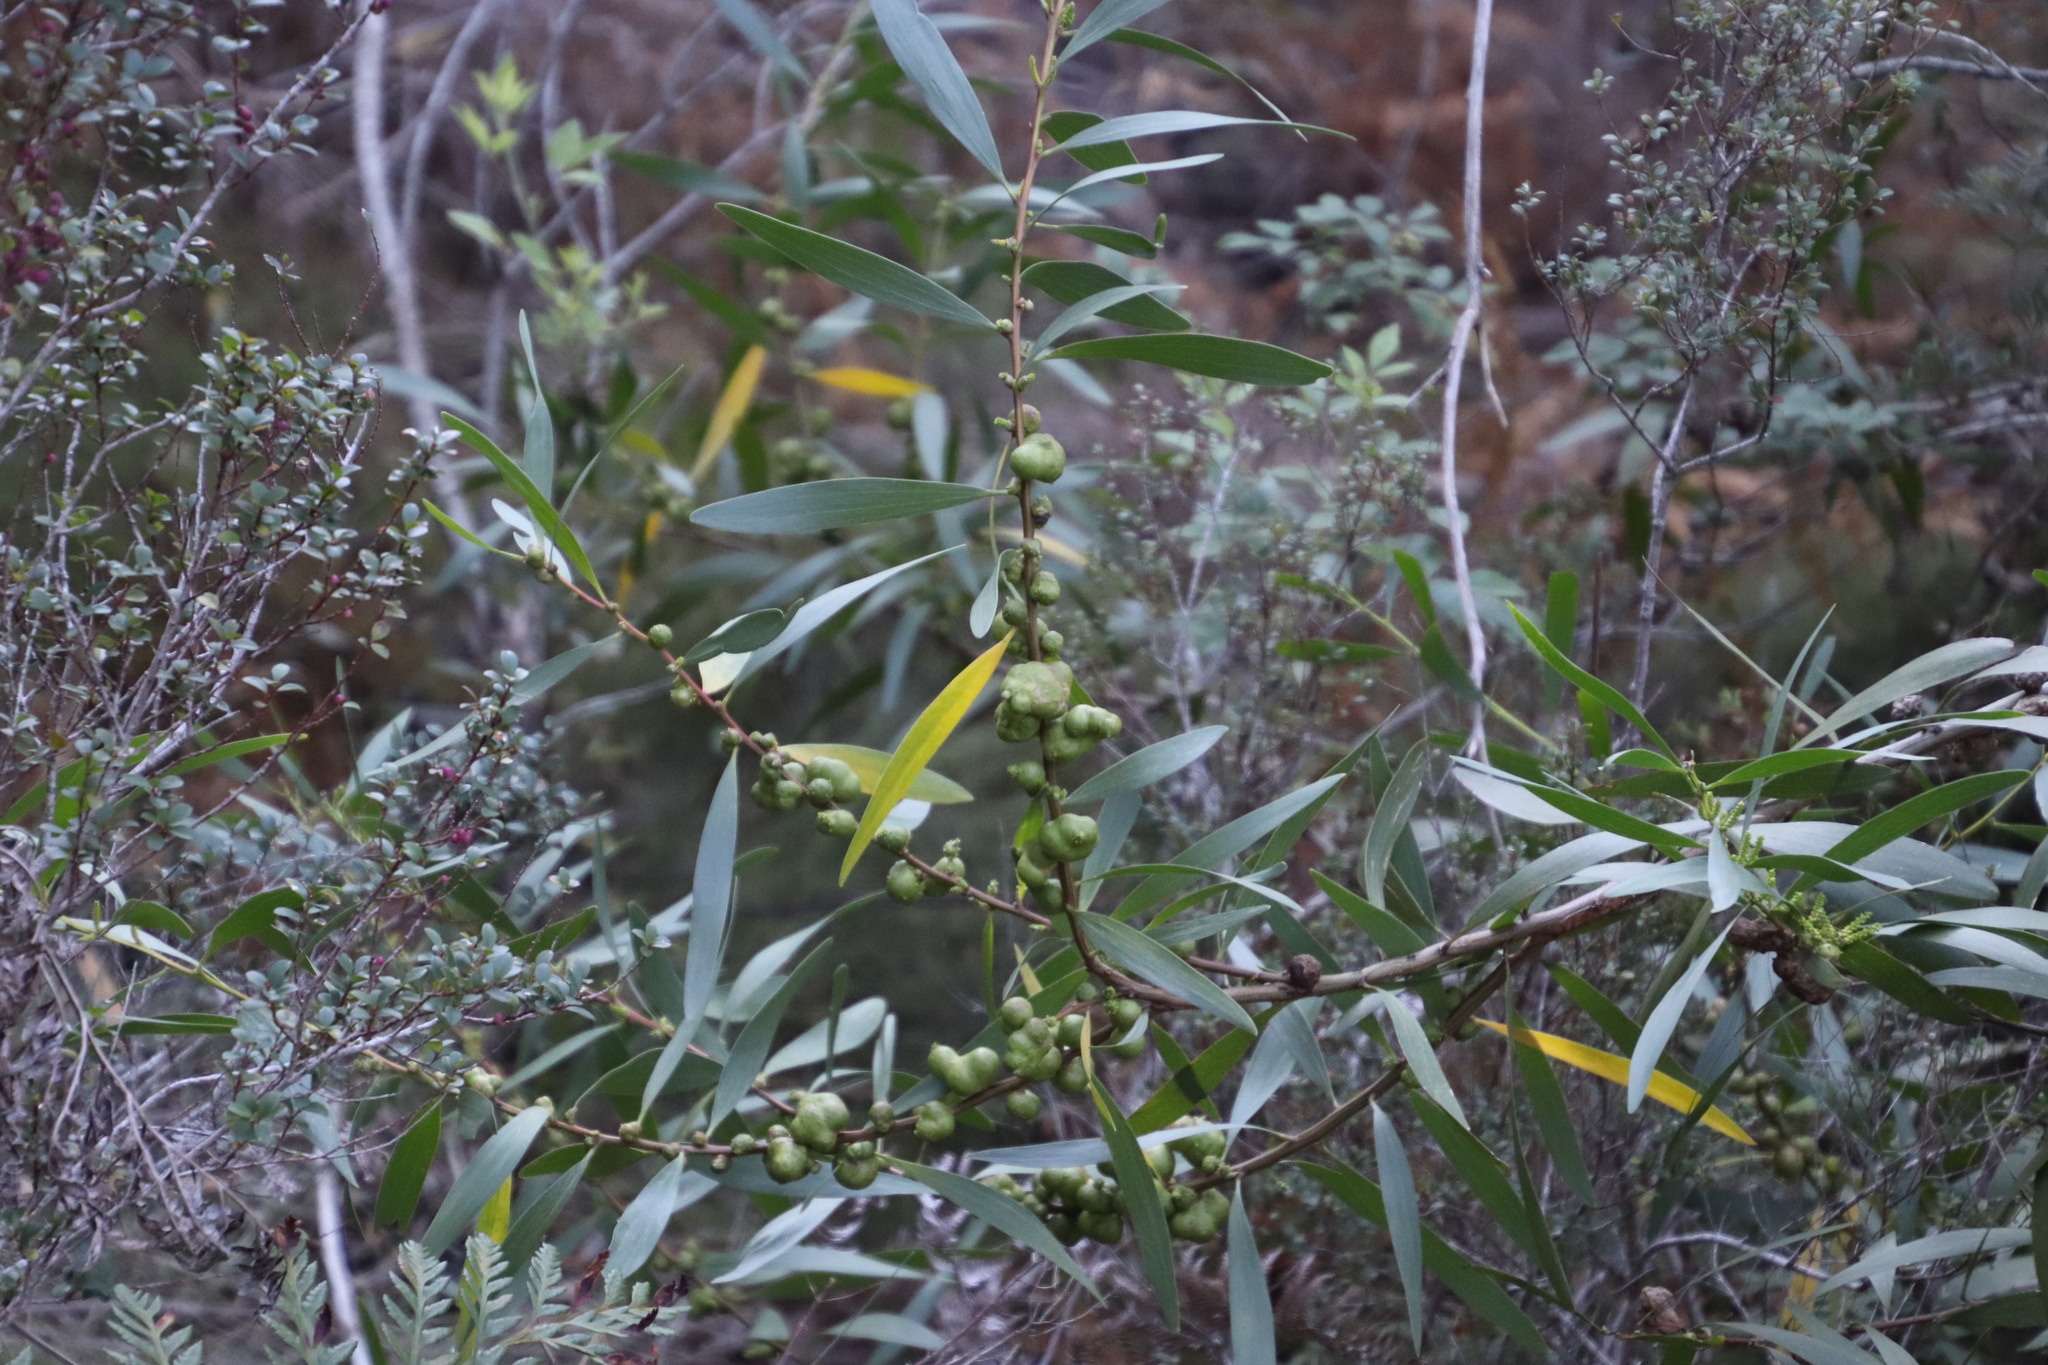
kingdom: Plantae
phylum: Tracheophyta
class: Magnoliopsida
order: Fabales
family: Fabaceae
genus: Acacia
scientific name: Acacia longifolia
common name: Sydney golden wattle
